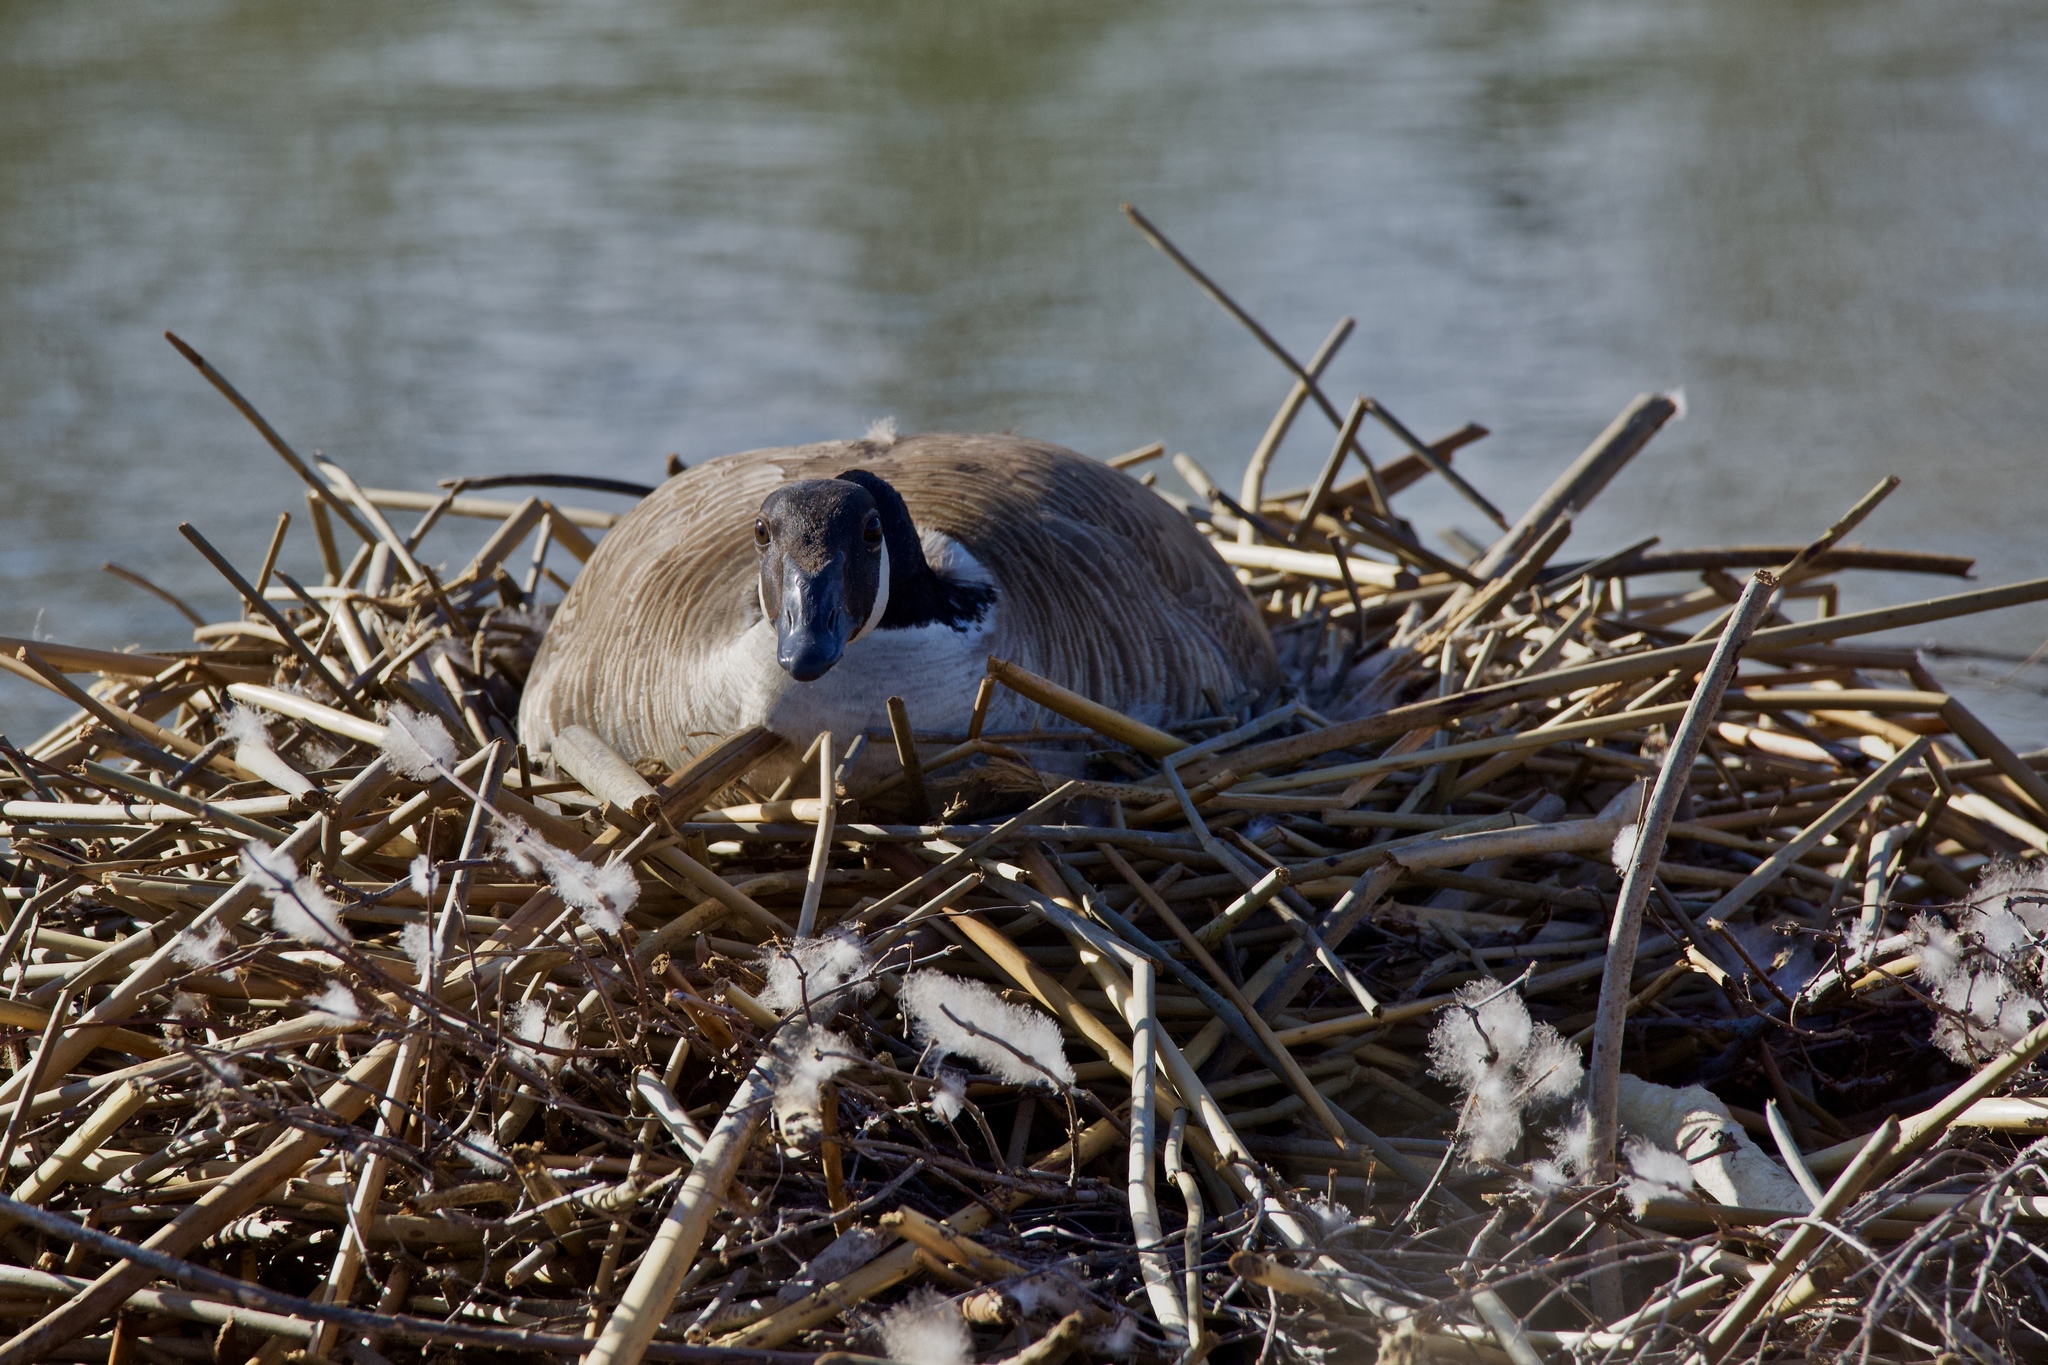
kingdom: Animalia
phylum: Chordata
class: Aves
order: Anseriformes
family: Anatidae
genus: Branta
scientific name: Branta canadensis
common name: Canada goose
